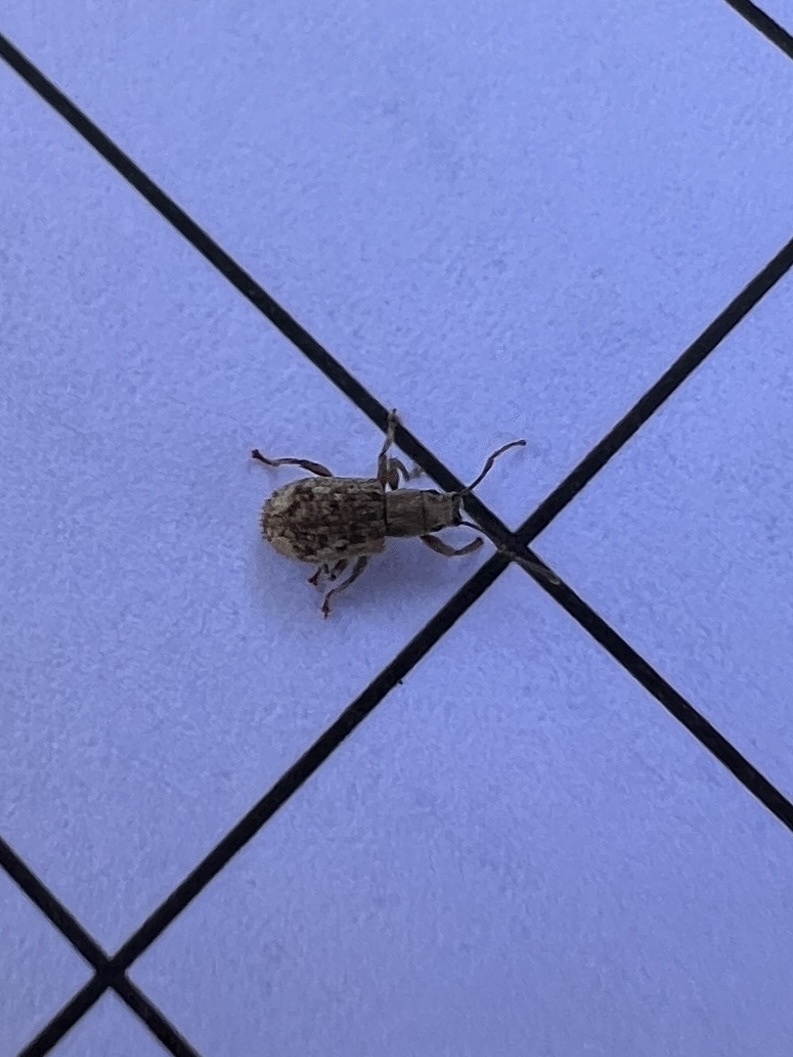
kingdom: Animalia
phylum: Arthropoda
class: Insecta
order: Coleoptera
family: Curculionidae
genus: Pseudoedophrys
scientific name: Pseudoedophrys hilleri
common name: Weevil
